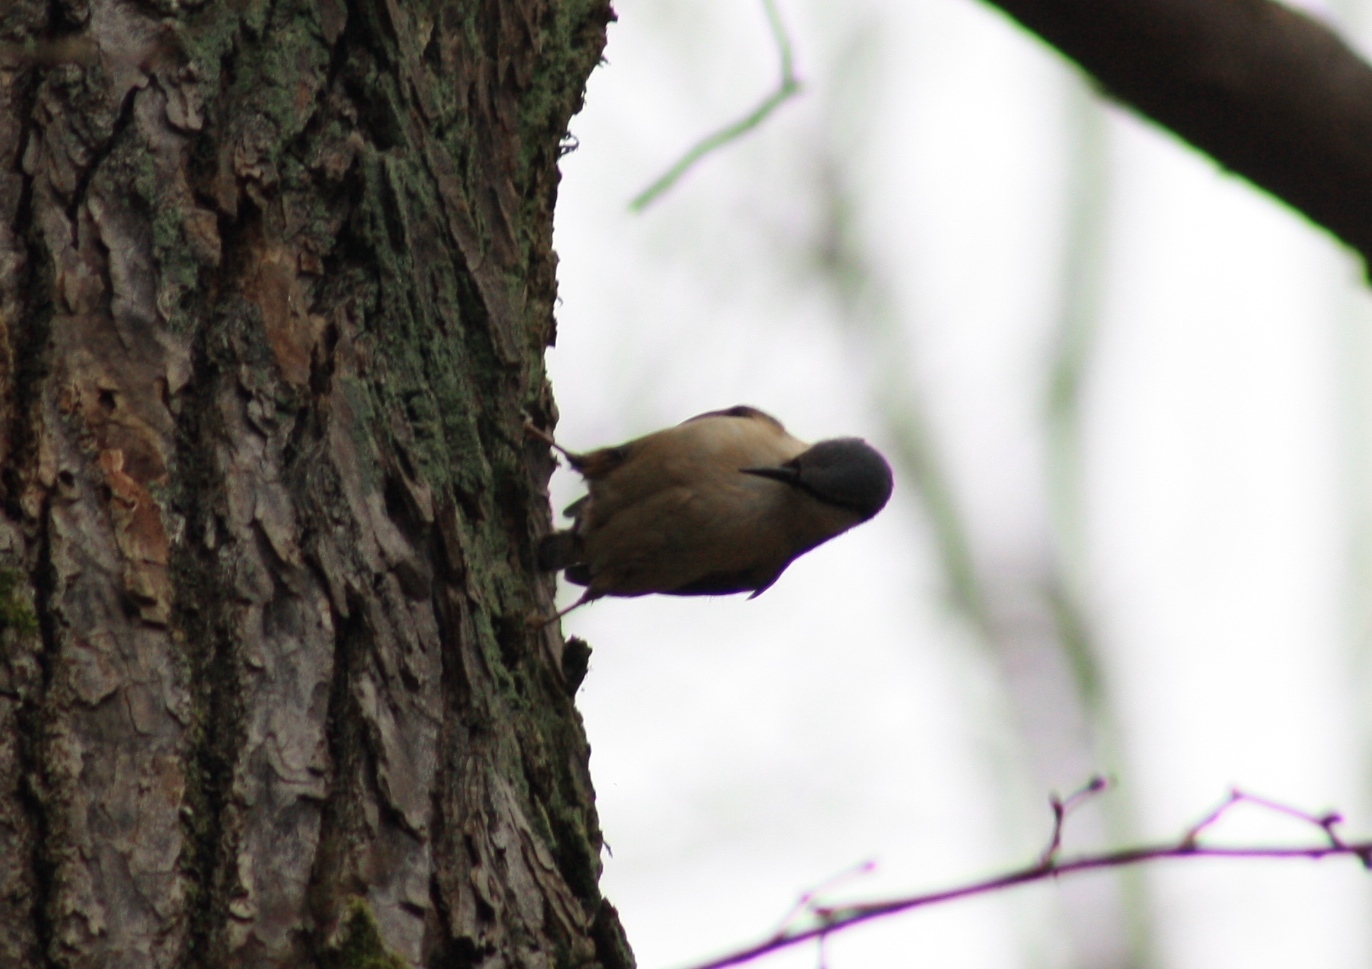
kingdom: Animalia
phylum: Chordata
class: Aves
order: Passeriformes
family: Sittidae
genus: Sitta
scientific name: Sitta europaea
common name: Eurasian nuthatch
